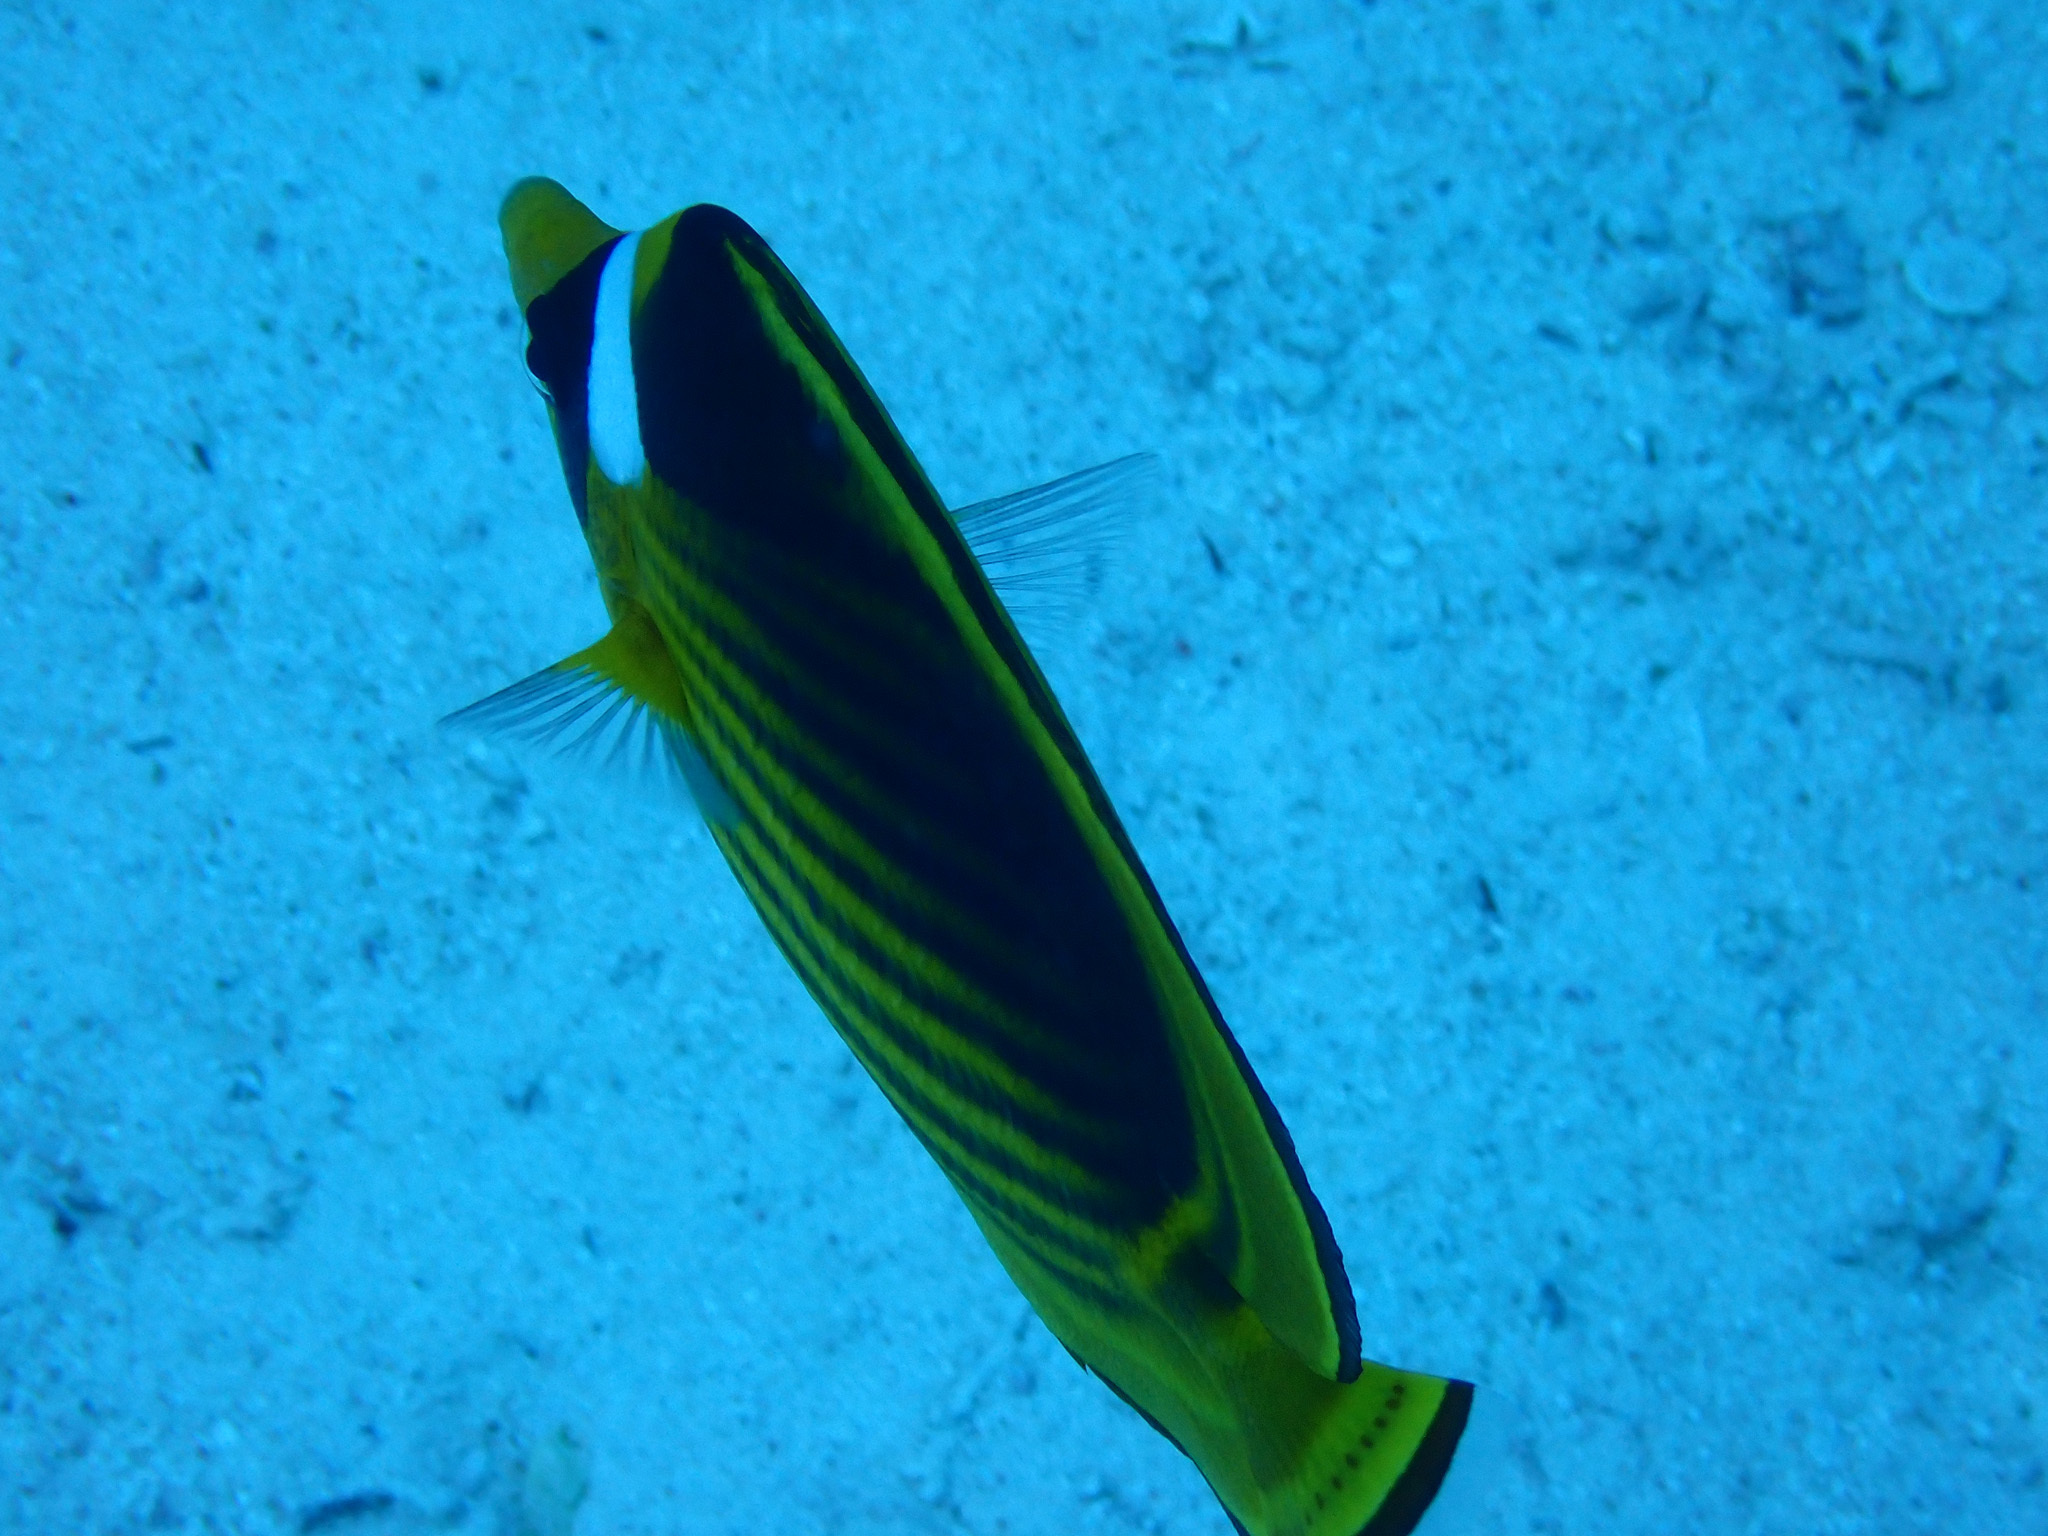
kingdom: Animalia
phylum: Chordata
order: Perciformes
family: Chaetodontidae
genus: Chaetodon
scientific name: Chaetodon fasciatus
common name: Diagonal butterflyfish
